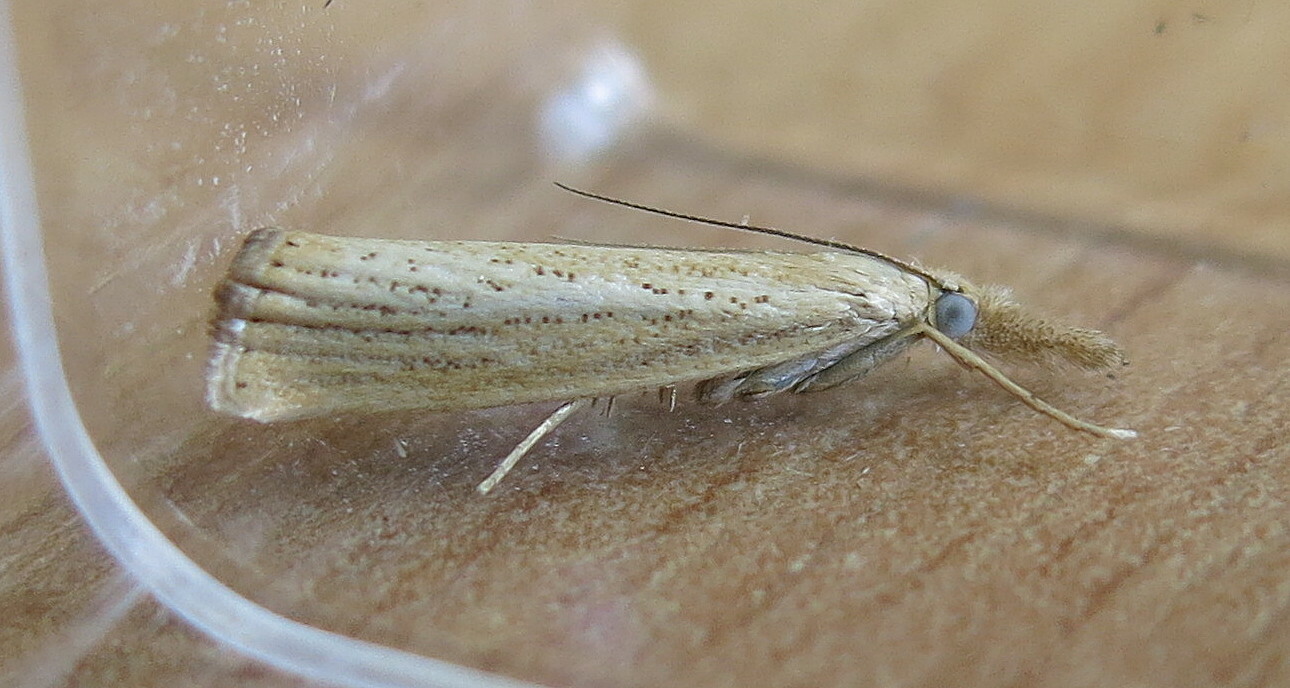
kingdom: Animalia
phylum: Arthropoda
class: Insecta
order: Lepidoptera
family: Crambidae
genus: Agriphila
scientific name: Agriphila straminella
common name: Straw grass-veneer
